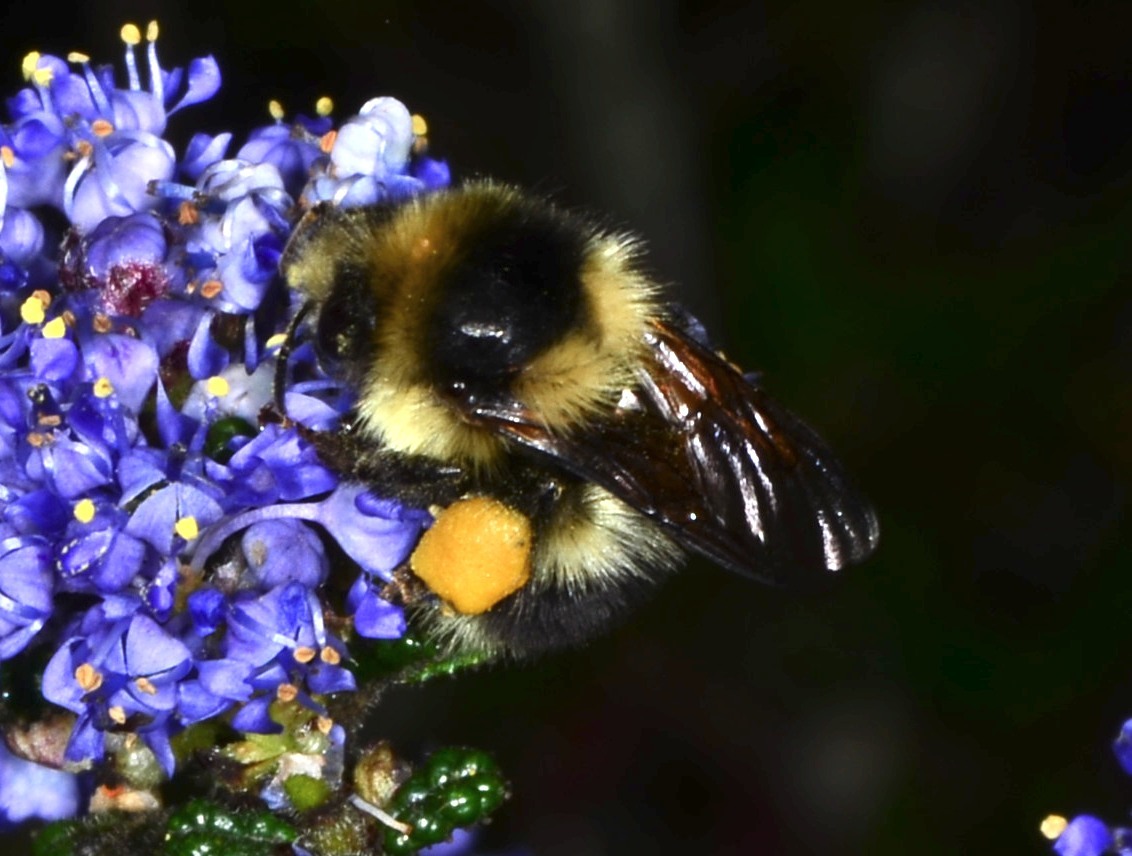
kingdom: Animalia
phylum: Arthropoda
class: Insecta
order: Hymenoptera
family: Apidae
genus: Bombus
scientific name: Bombus melanopygus
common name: Black tail bumble bee
